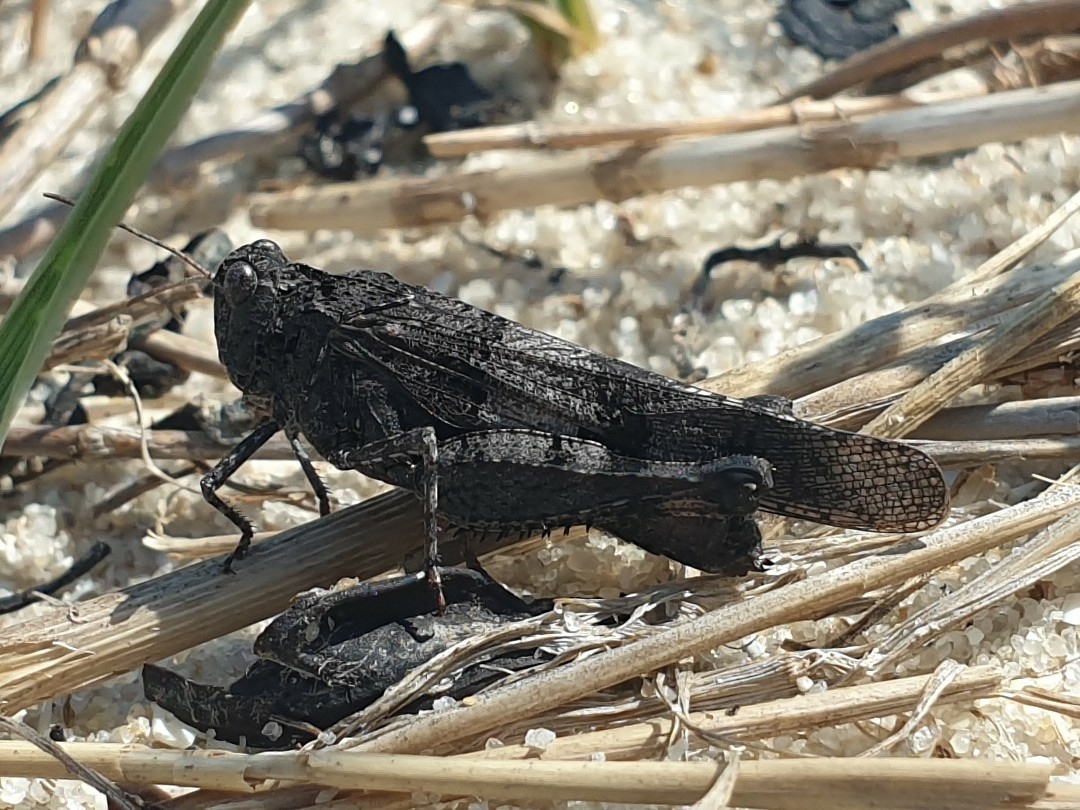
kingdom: Animalia
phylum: Arthropoda
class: Insecta
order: Orthoptera
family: Acrididae
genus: Oedipoda
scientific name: Oedipoda caerulescens
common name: Blue-winged grasshopper
